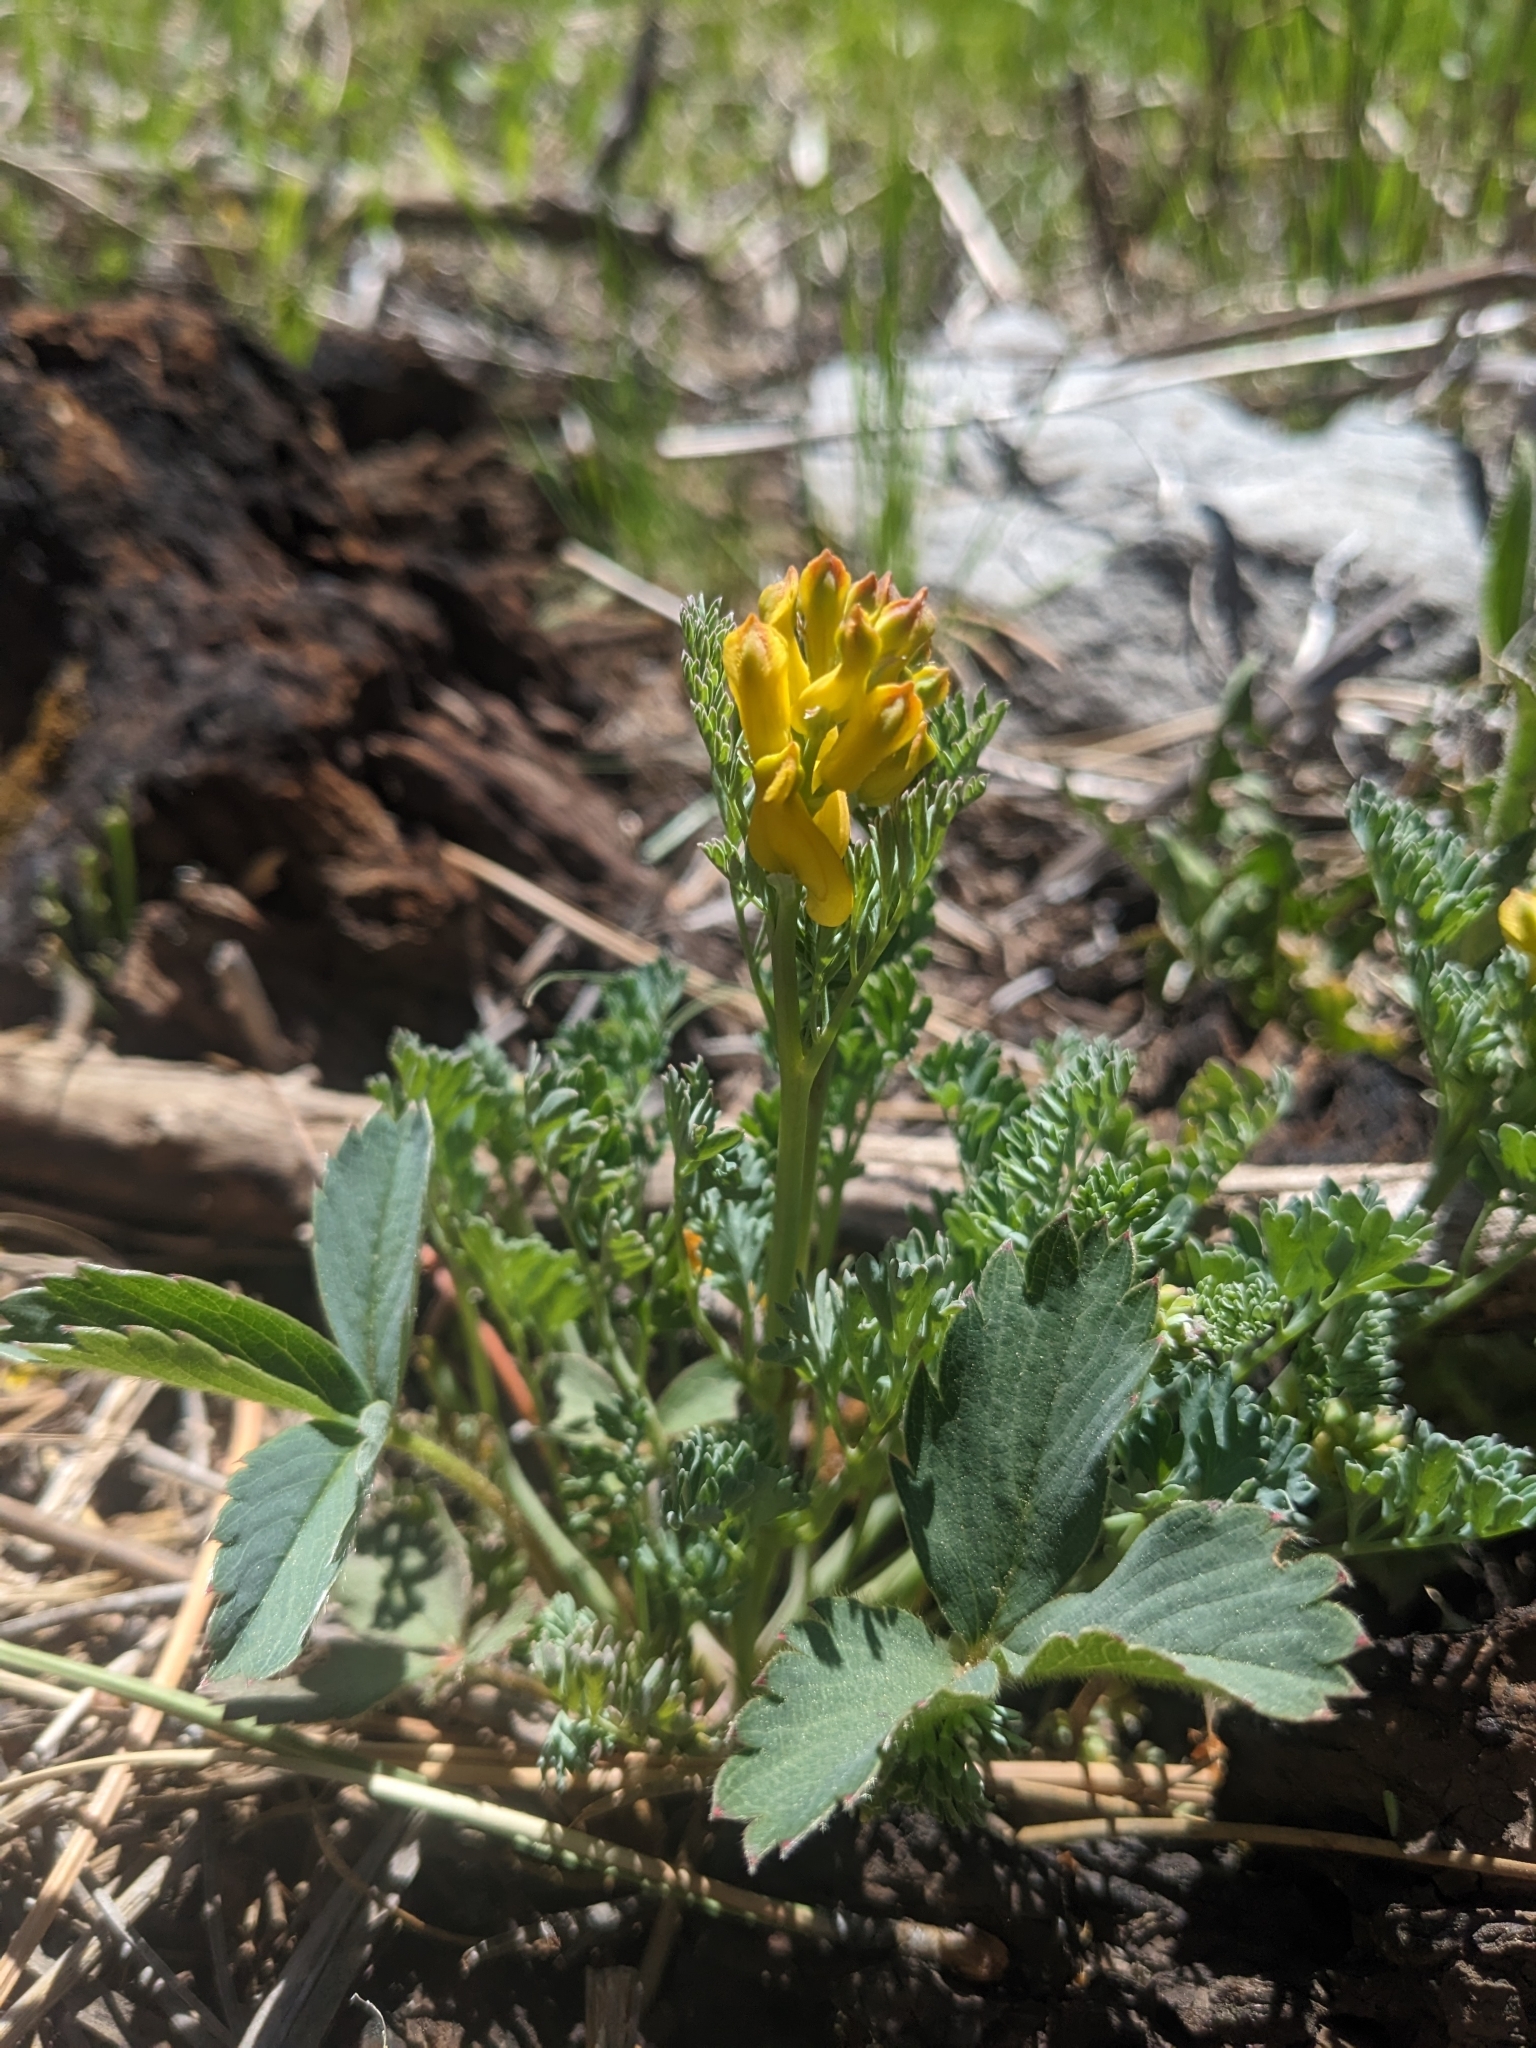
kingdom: Plantae
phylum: Tracheophyta
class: Magnoliopsida
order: Ranunculales
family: Papaveraceae
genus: Corydalis
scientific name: Corydalis aurea
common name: Golden corydalis
